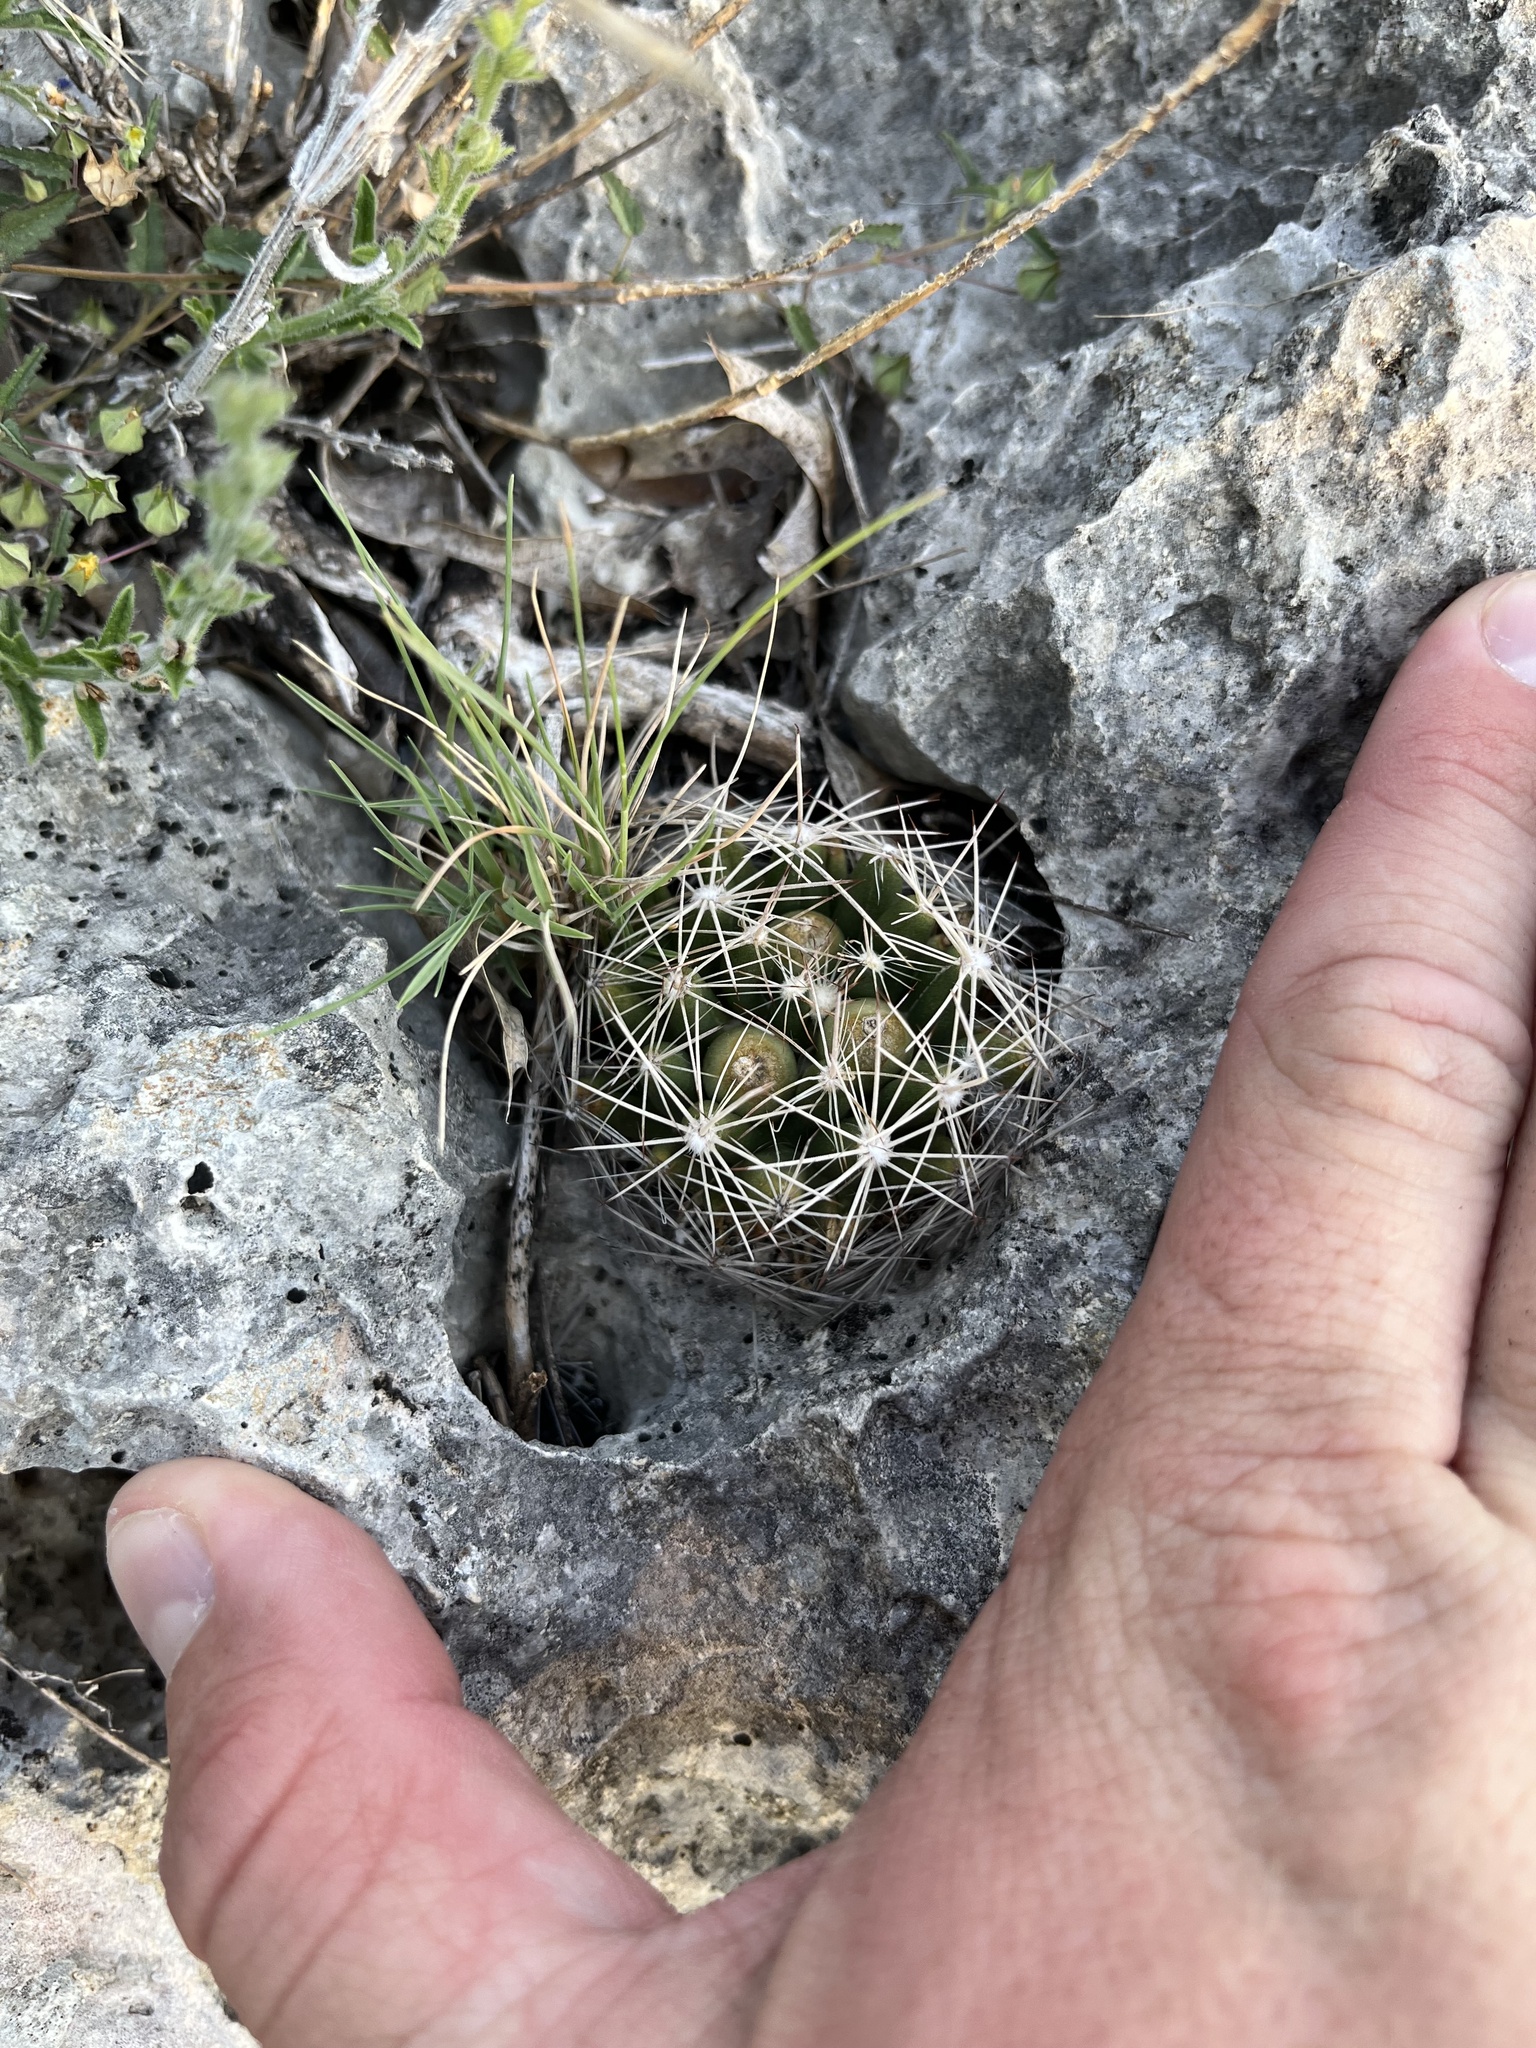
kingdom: Plantae
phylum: Tracheophyta
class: Magnoliopsida
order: Caryophyllales
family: Cactaceae
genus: Pelecyphora
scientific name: Pelecyphora missouriensis
